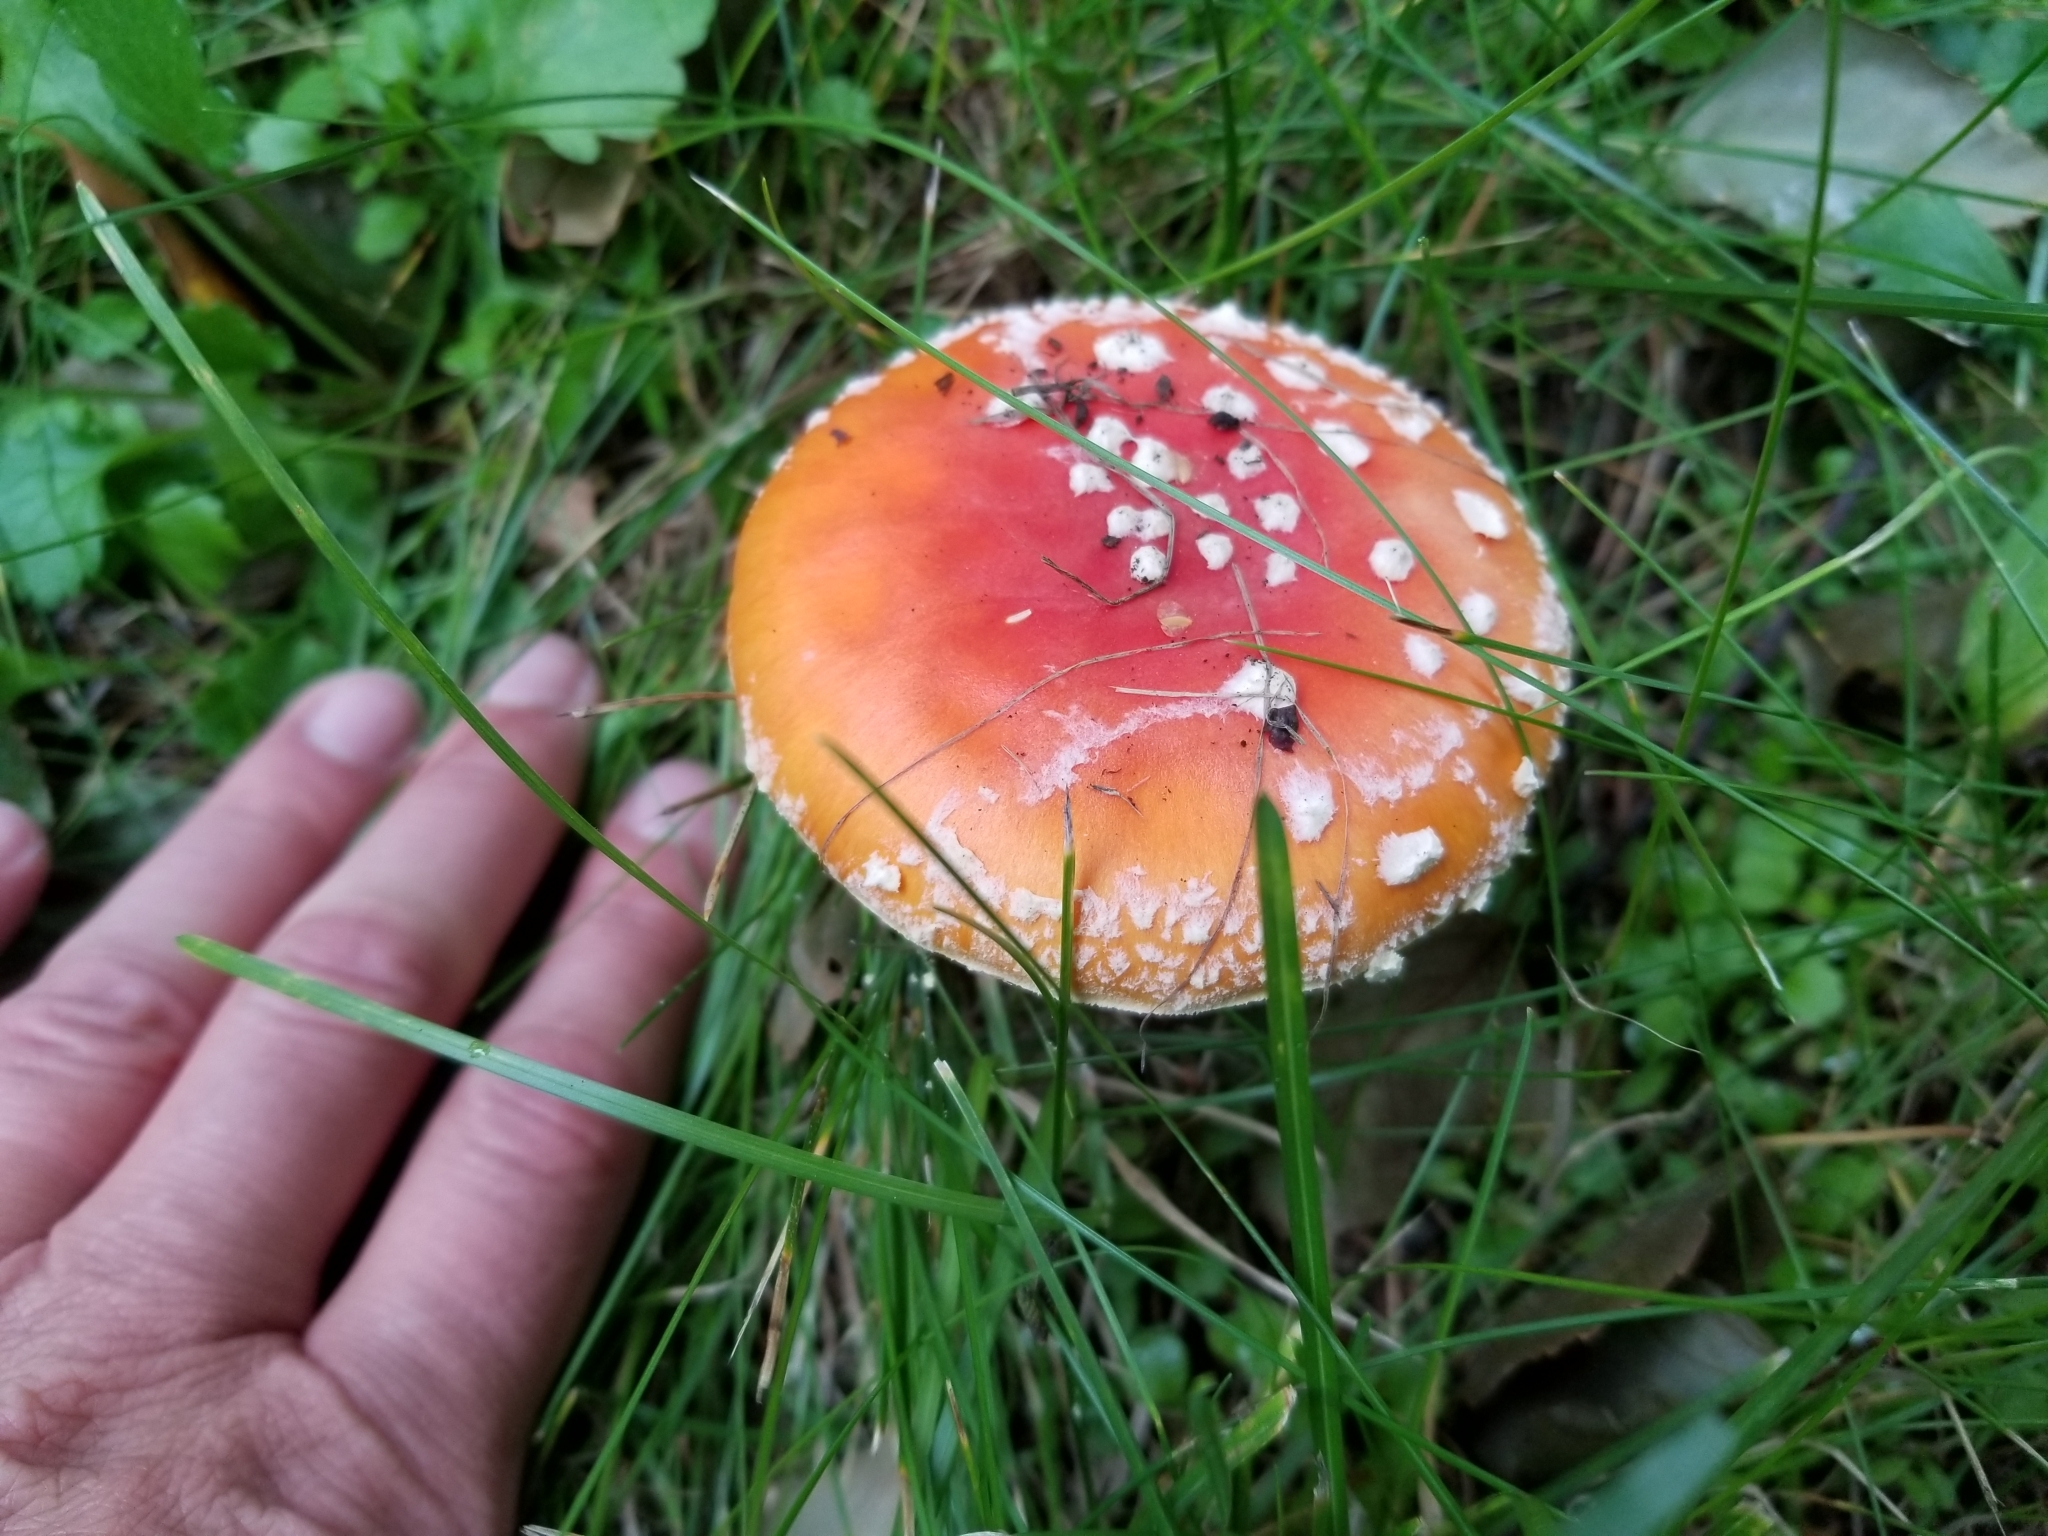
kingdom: Fungi
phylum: Basidiomycota
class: Agaricomycetes
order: Agaricales
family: Amanitaceae
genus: Amanita
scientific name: Amanita muscaria
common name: Fly agaric
